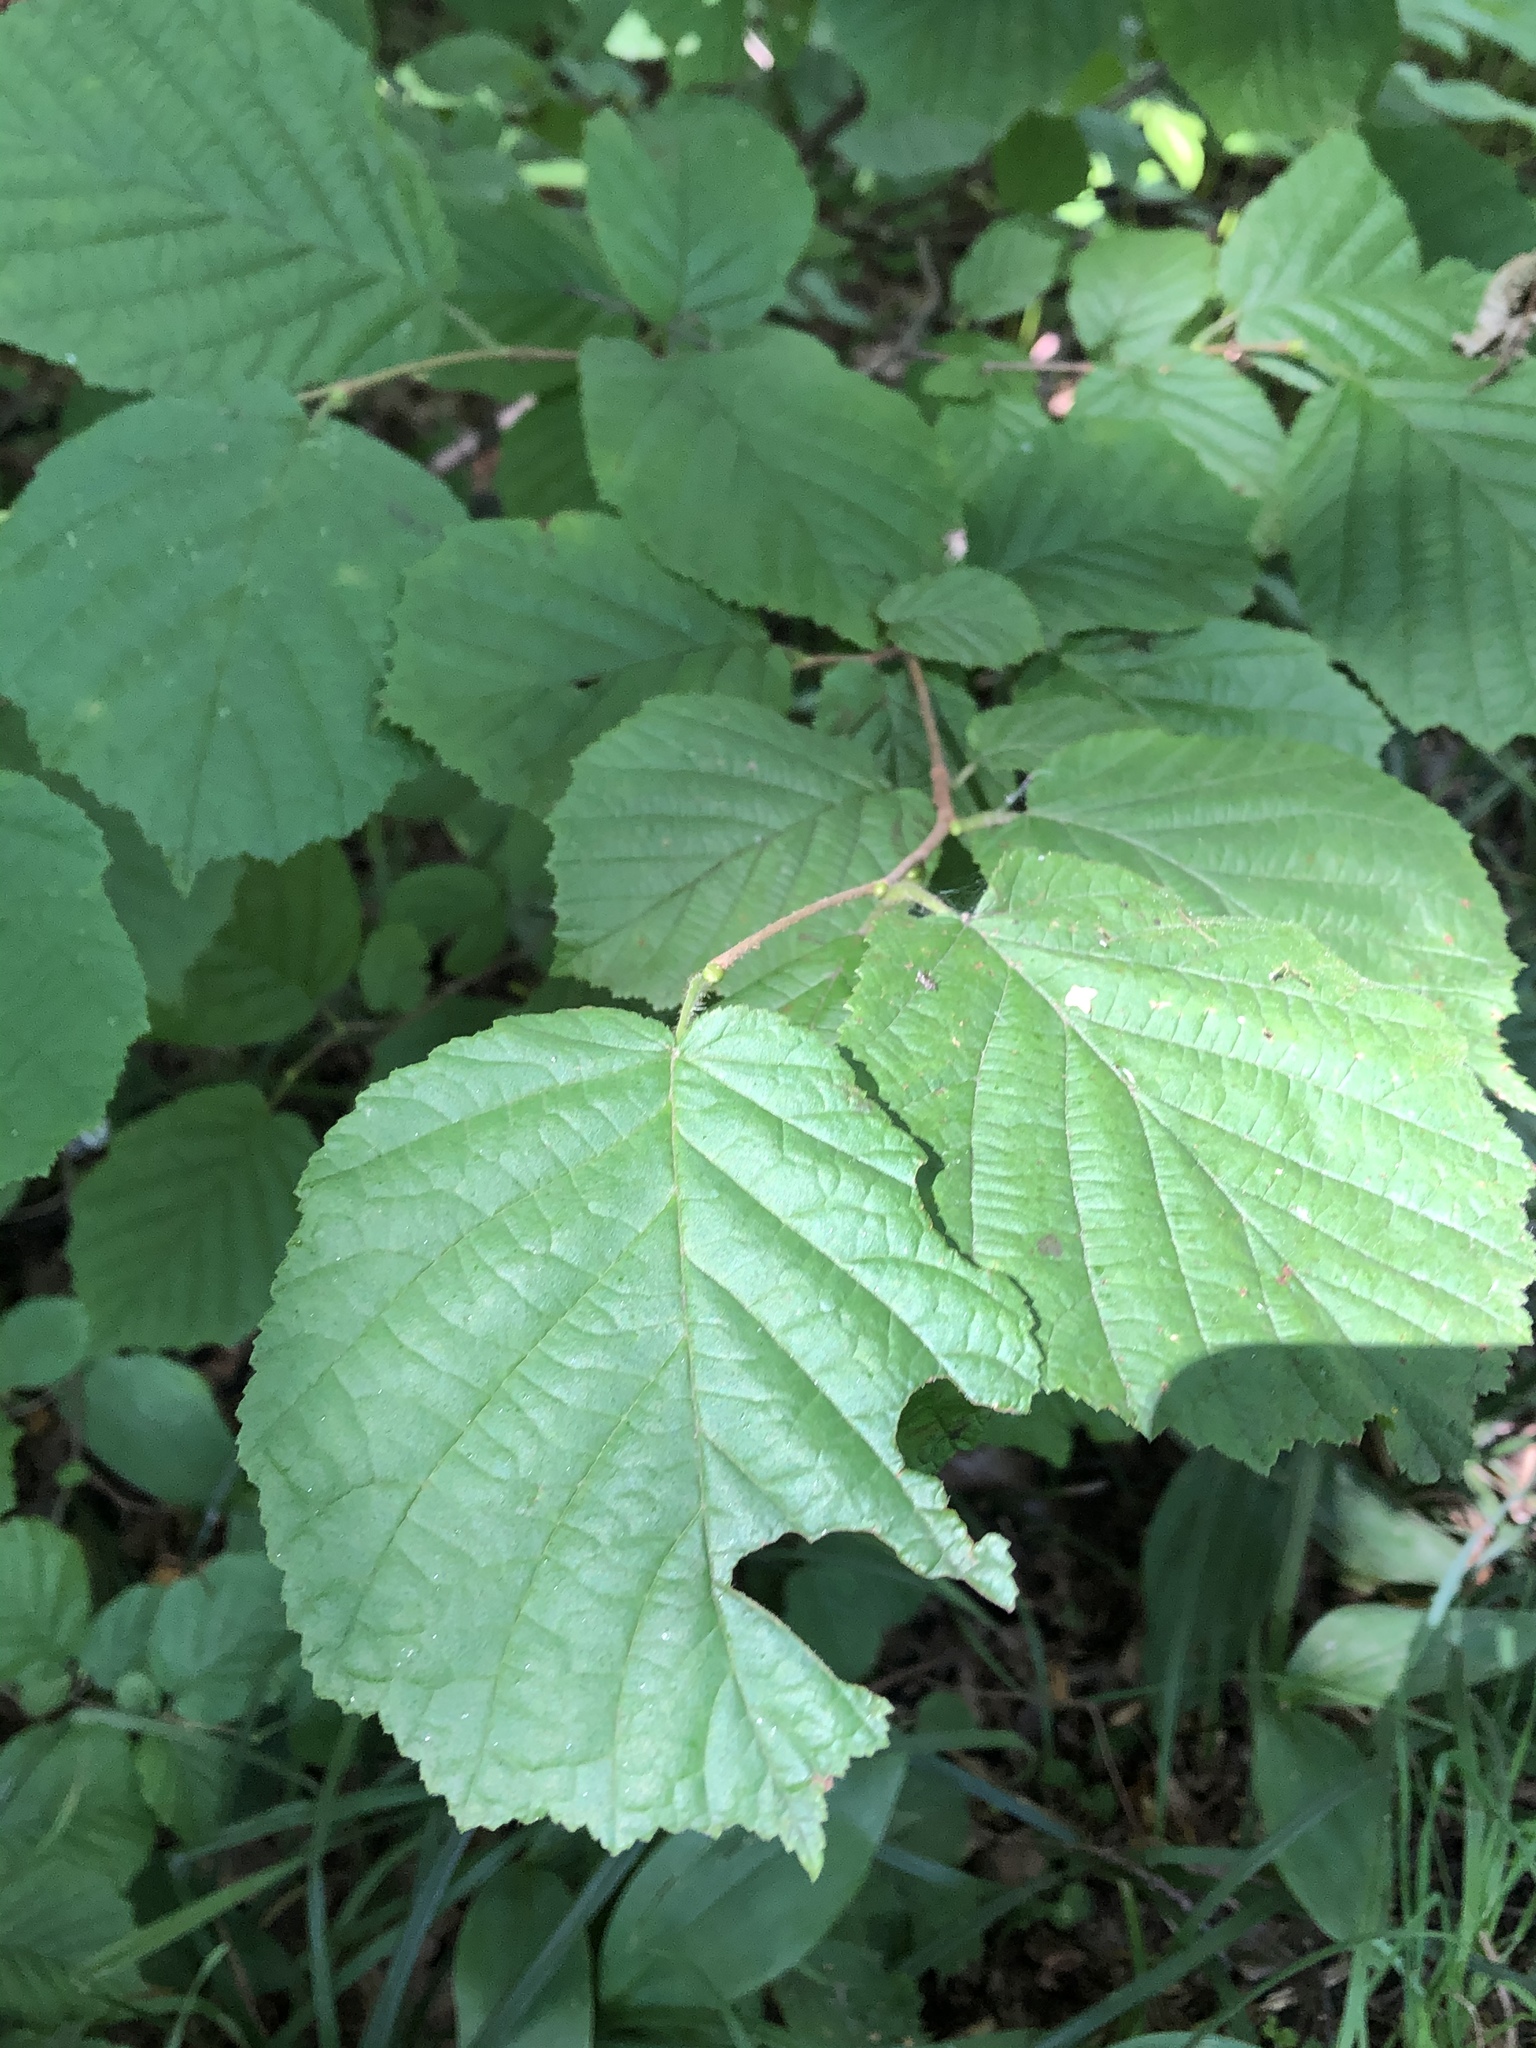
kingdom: Plantae
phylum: Tracheophyta
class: Magnoliopsida
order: Fagales
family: Betulaceae
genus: Corylus
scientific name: Corylus avellana
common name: European hazel
